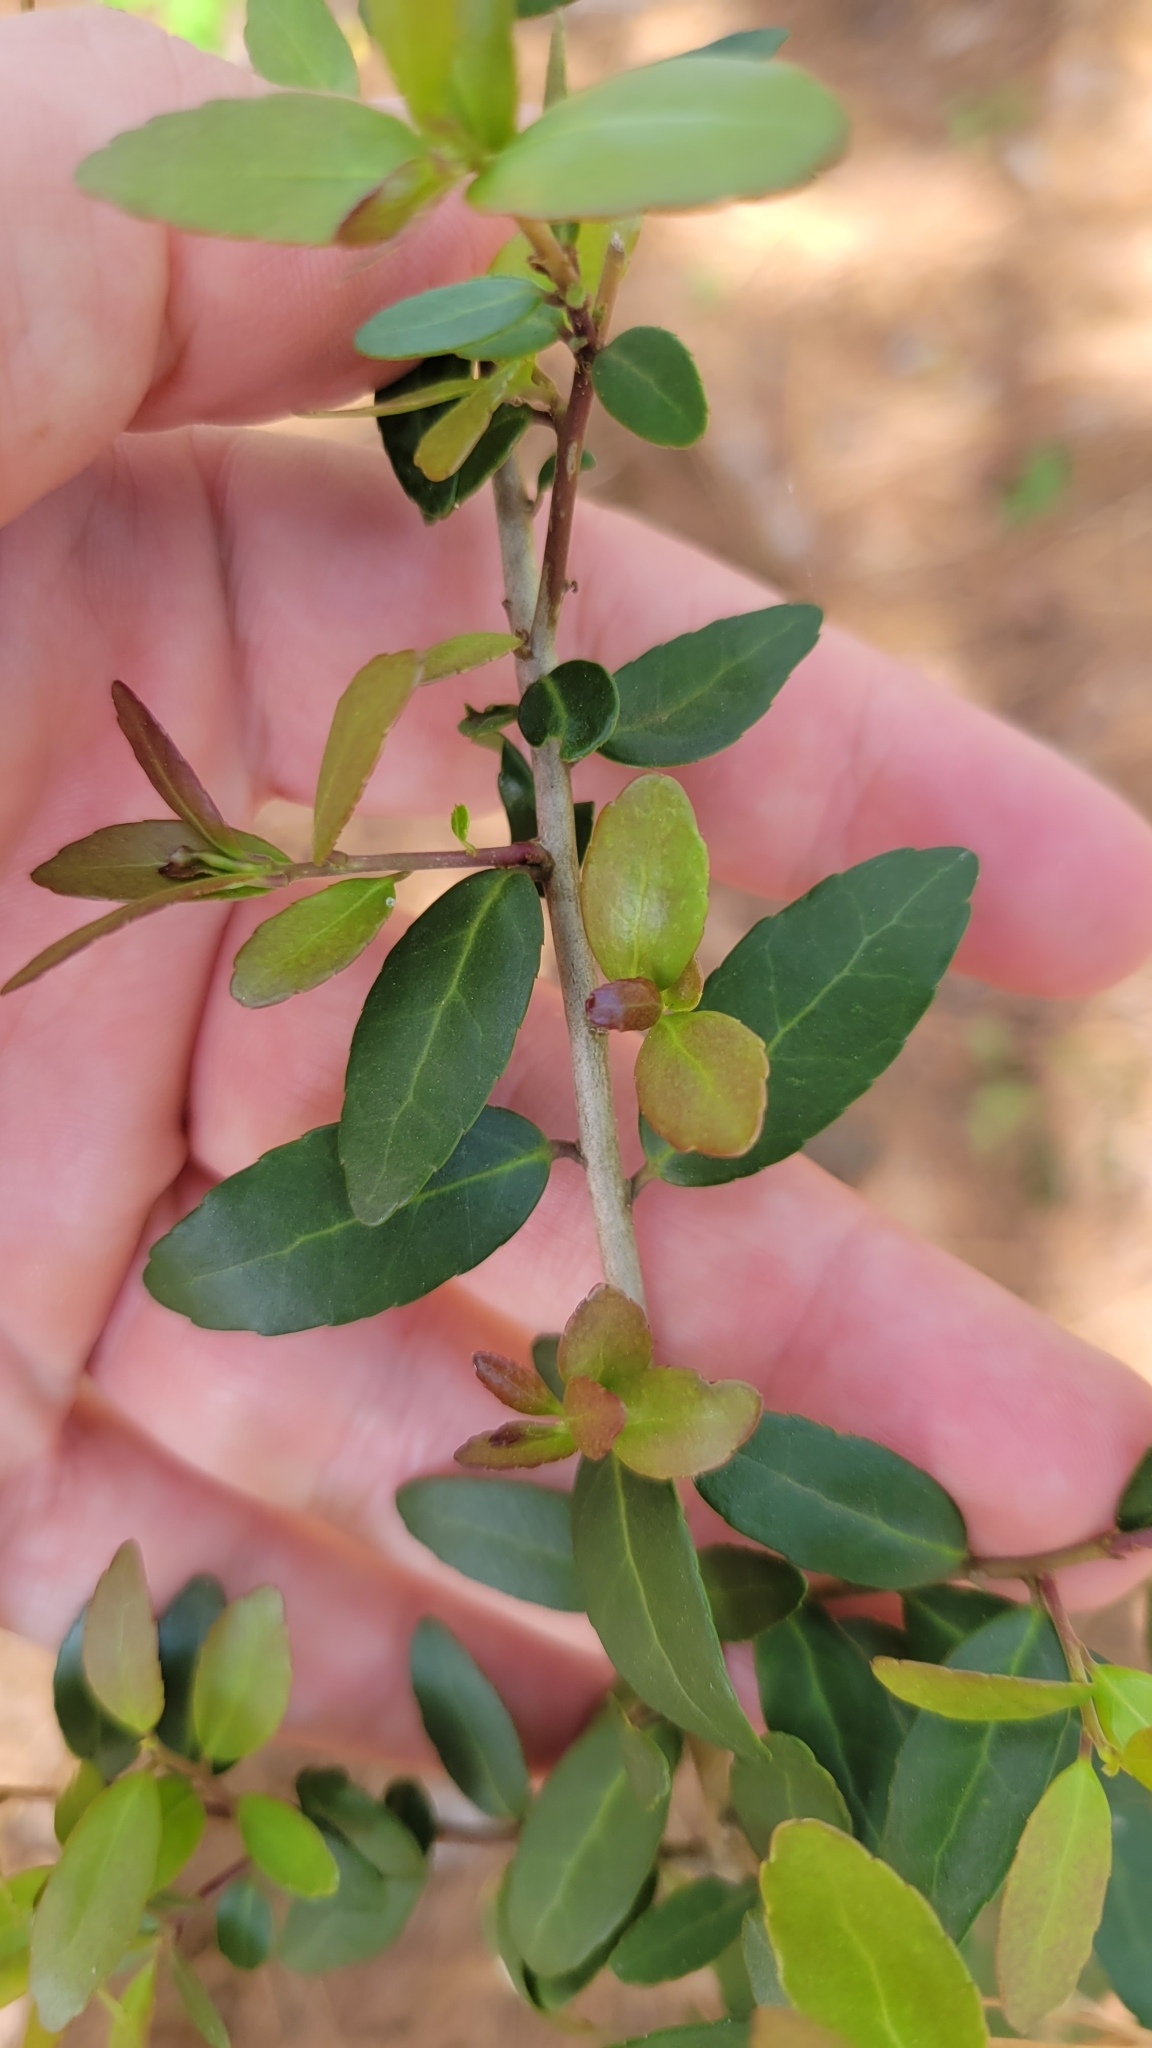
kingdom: Plantae
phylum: Tracheophyta
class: Magnoliopsida
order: Aquifoliales
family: Aquifoliaceae
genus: Ilex
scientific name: Ilex vomitoria
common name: Yaupon holly
